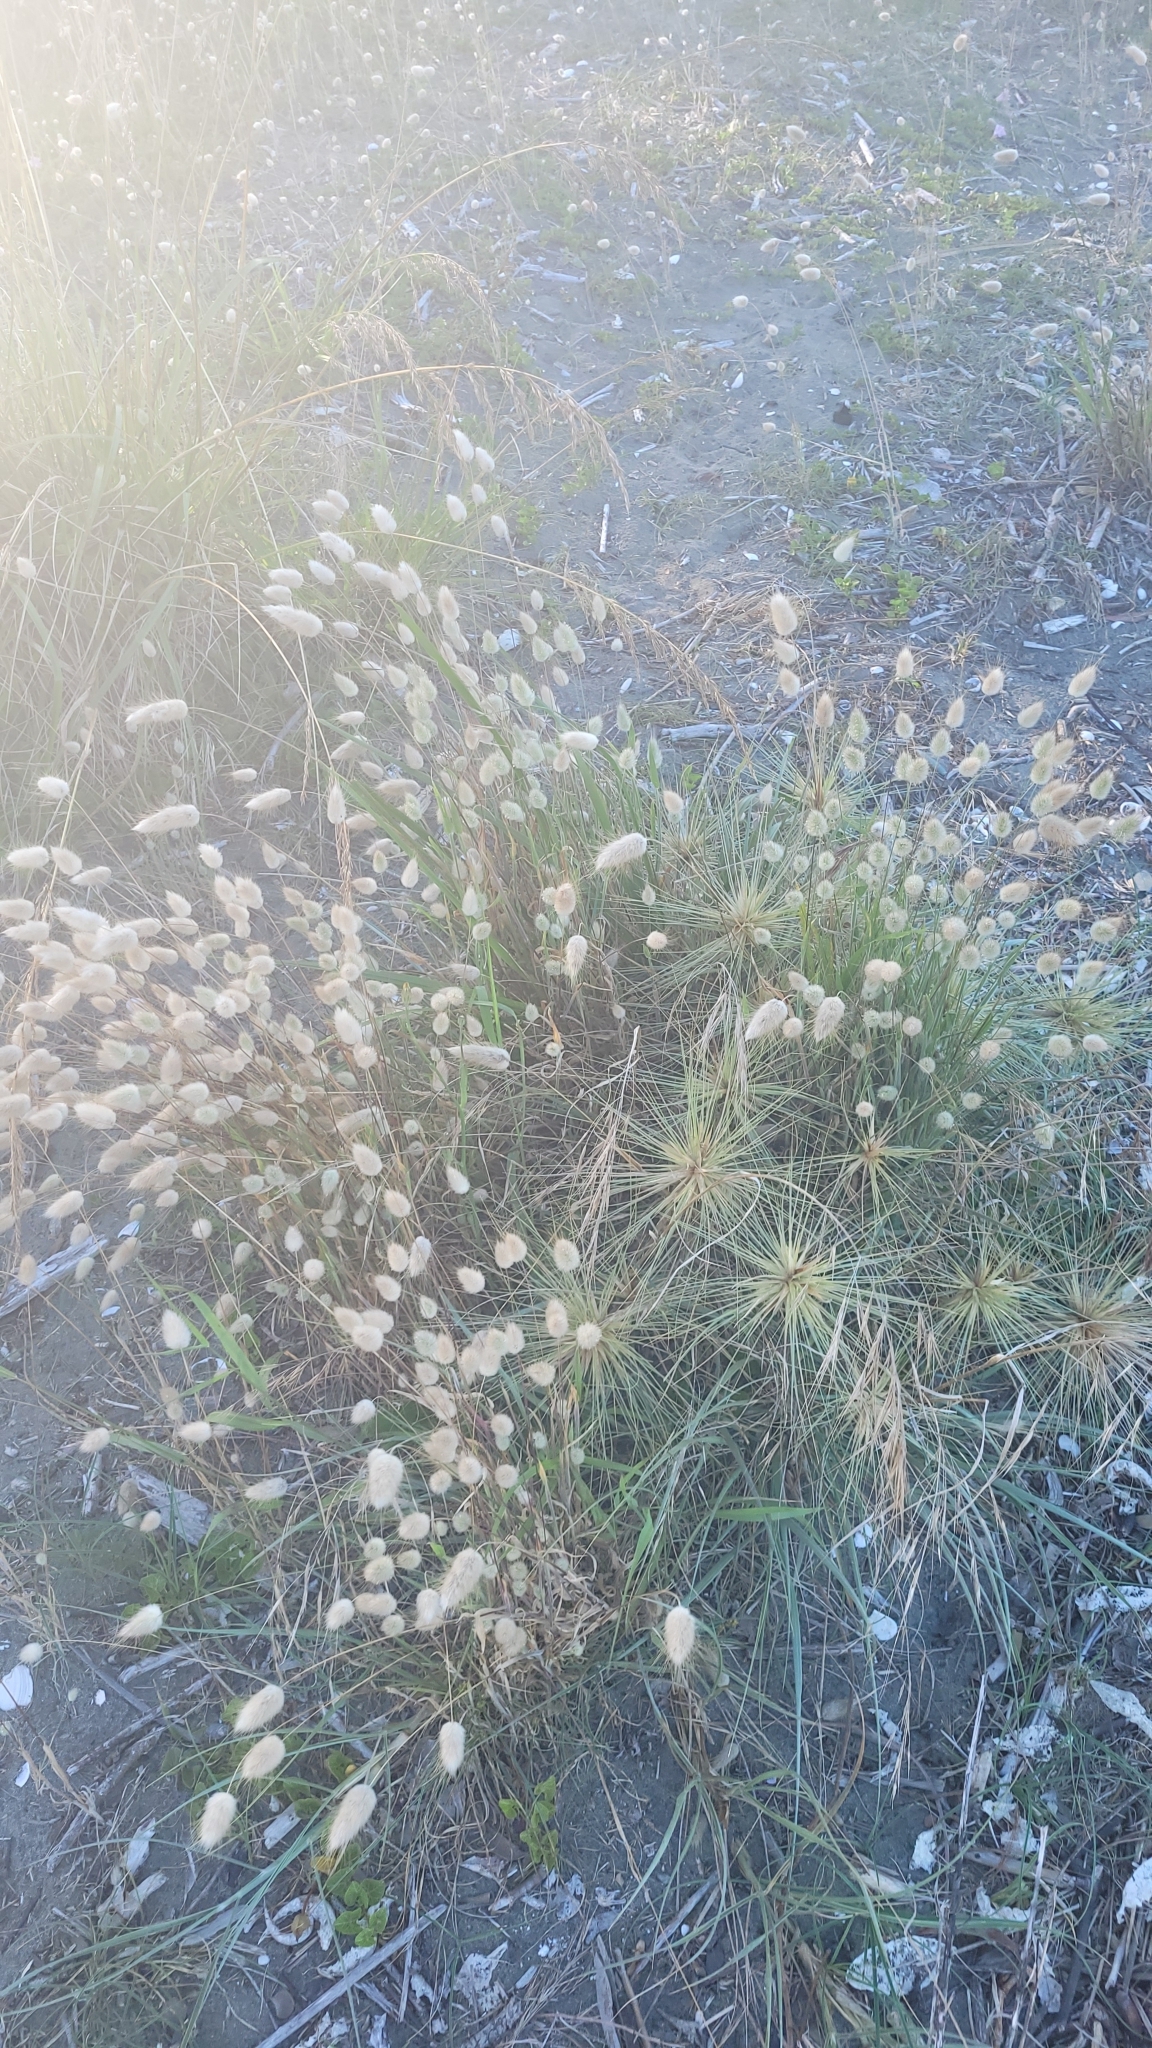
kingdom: Plantae
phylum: Tracheophyta
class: Liliopsida
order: Poales
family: Poaceae
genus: Lagurus
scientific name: Lagurus ovatus
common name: Hare's-tail
